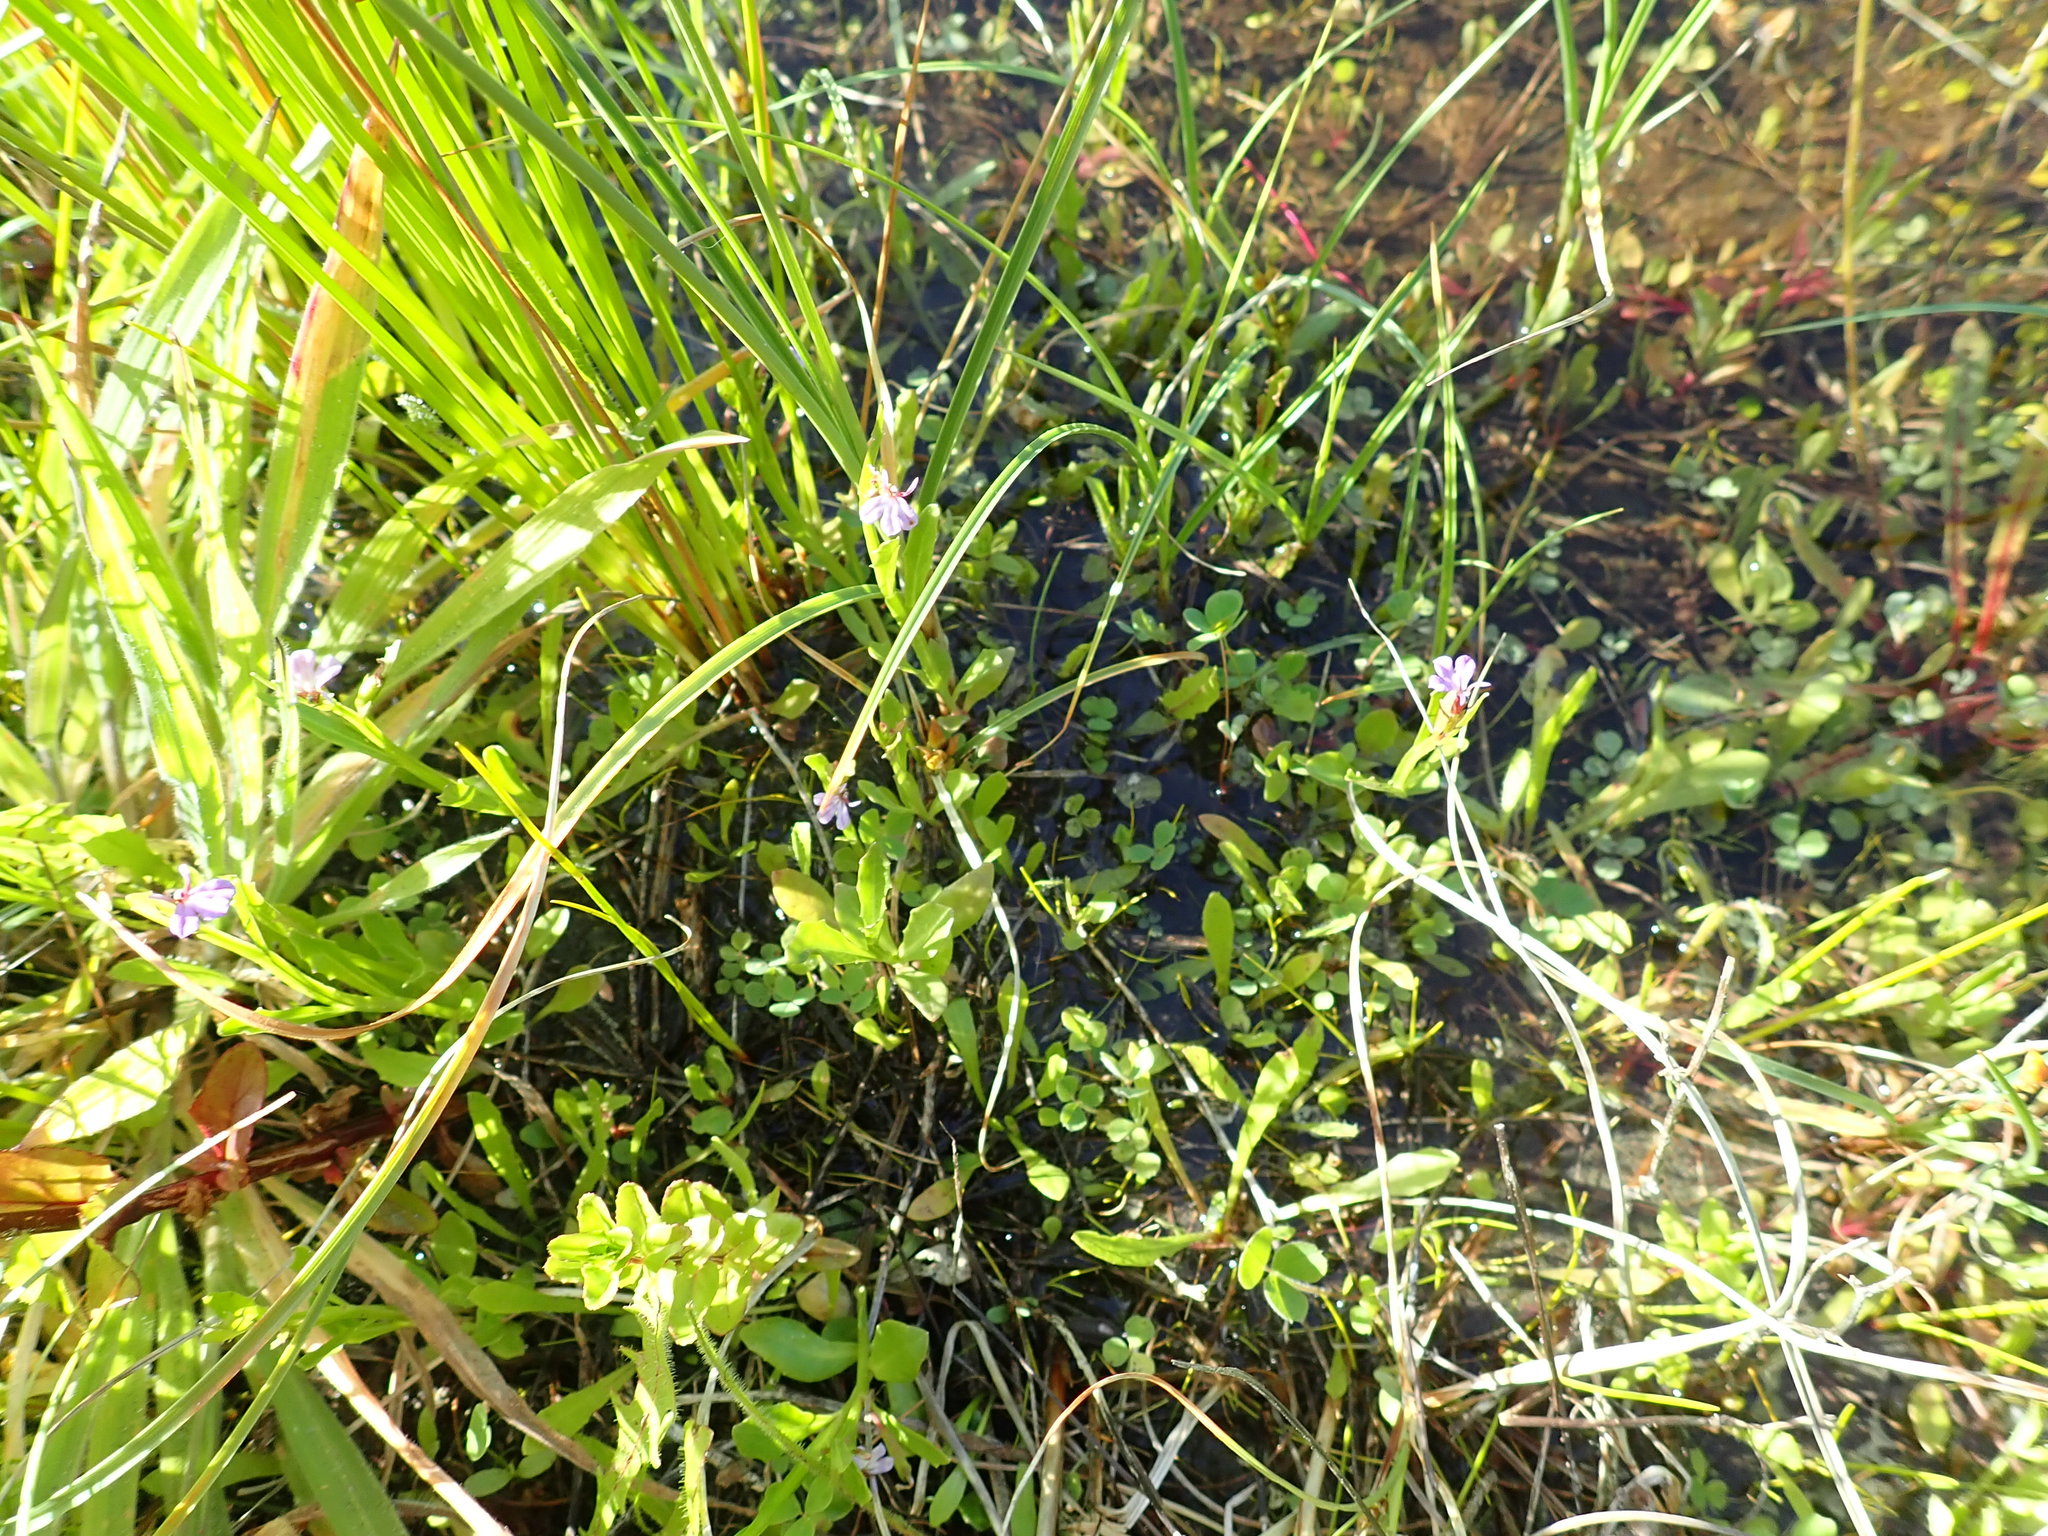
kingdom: Plantae
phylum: Tracheophyta
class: Magnoliopsida
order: Asterales
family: Campanulaceae
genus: Lobelia
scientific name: Lobelia anceps
